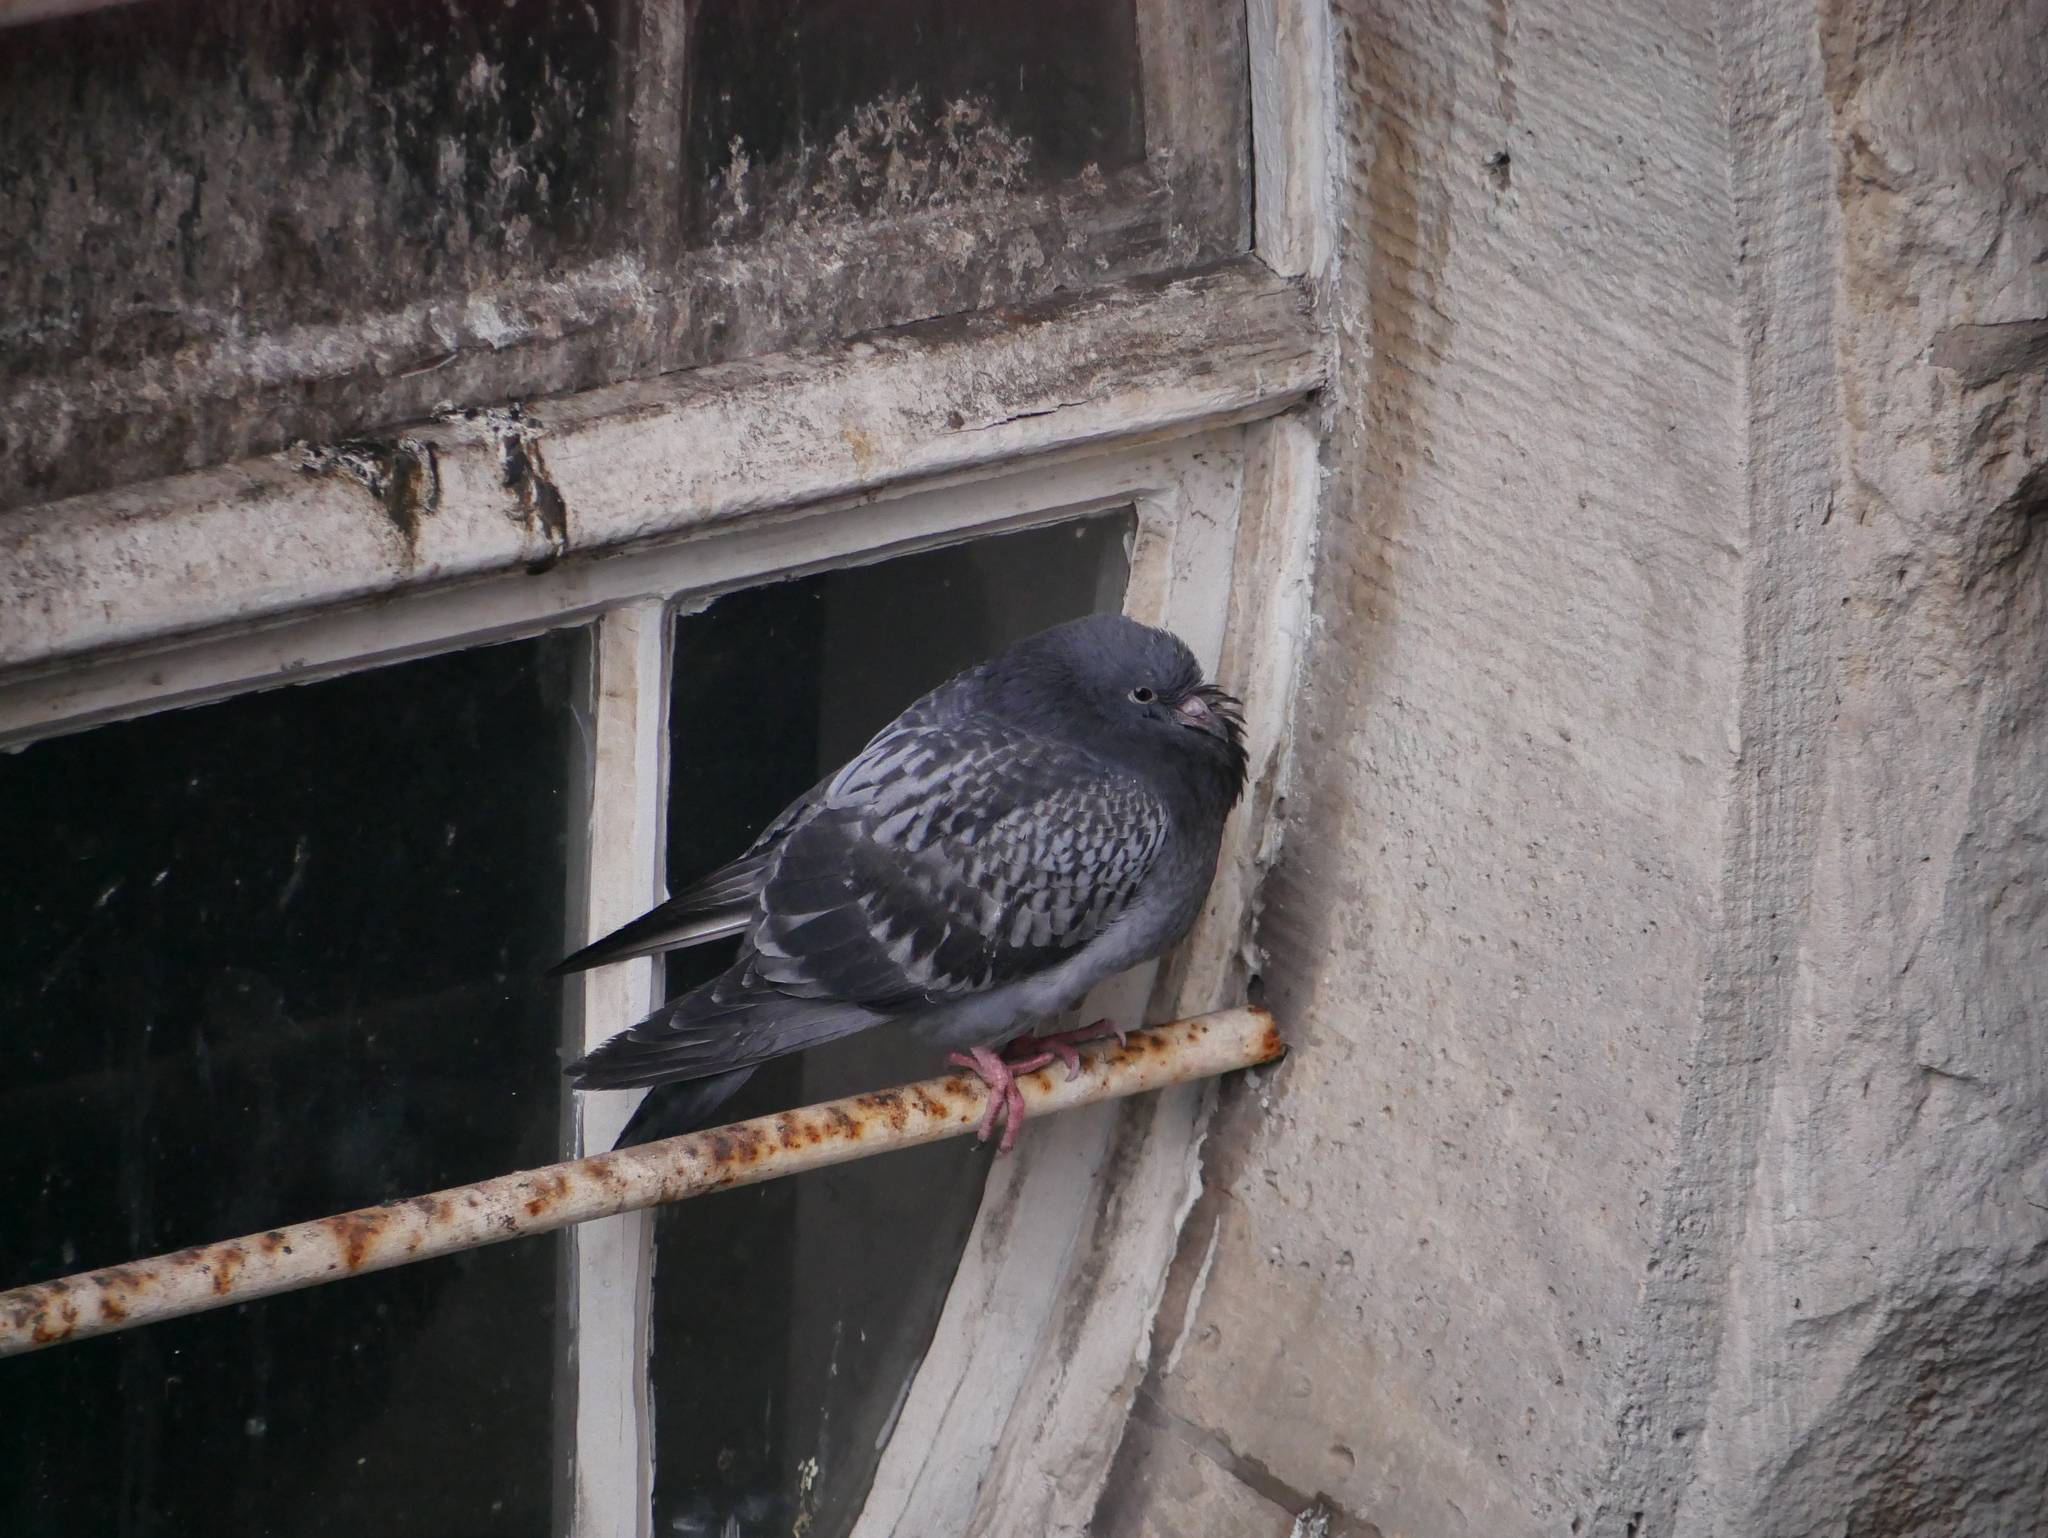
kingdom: Animalia
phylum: Chordata
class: Aves
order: Columbiformes
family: Columbidae
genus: Columba
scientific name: Columba livia
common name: Rock pigeon
